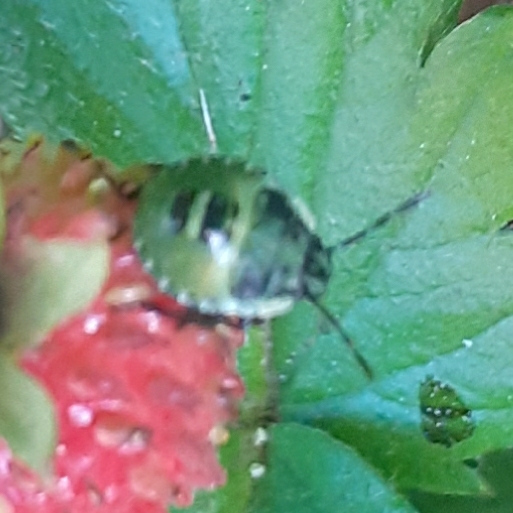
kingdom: Animalia
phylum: Arthropoda
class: Insecta
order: Hemiptera
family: Pentatomidae
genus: Palomena
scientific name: Palomena prasina
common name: Green shieldbug
